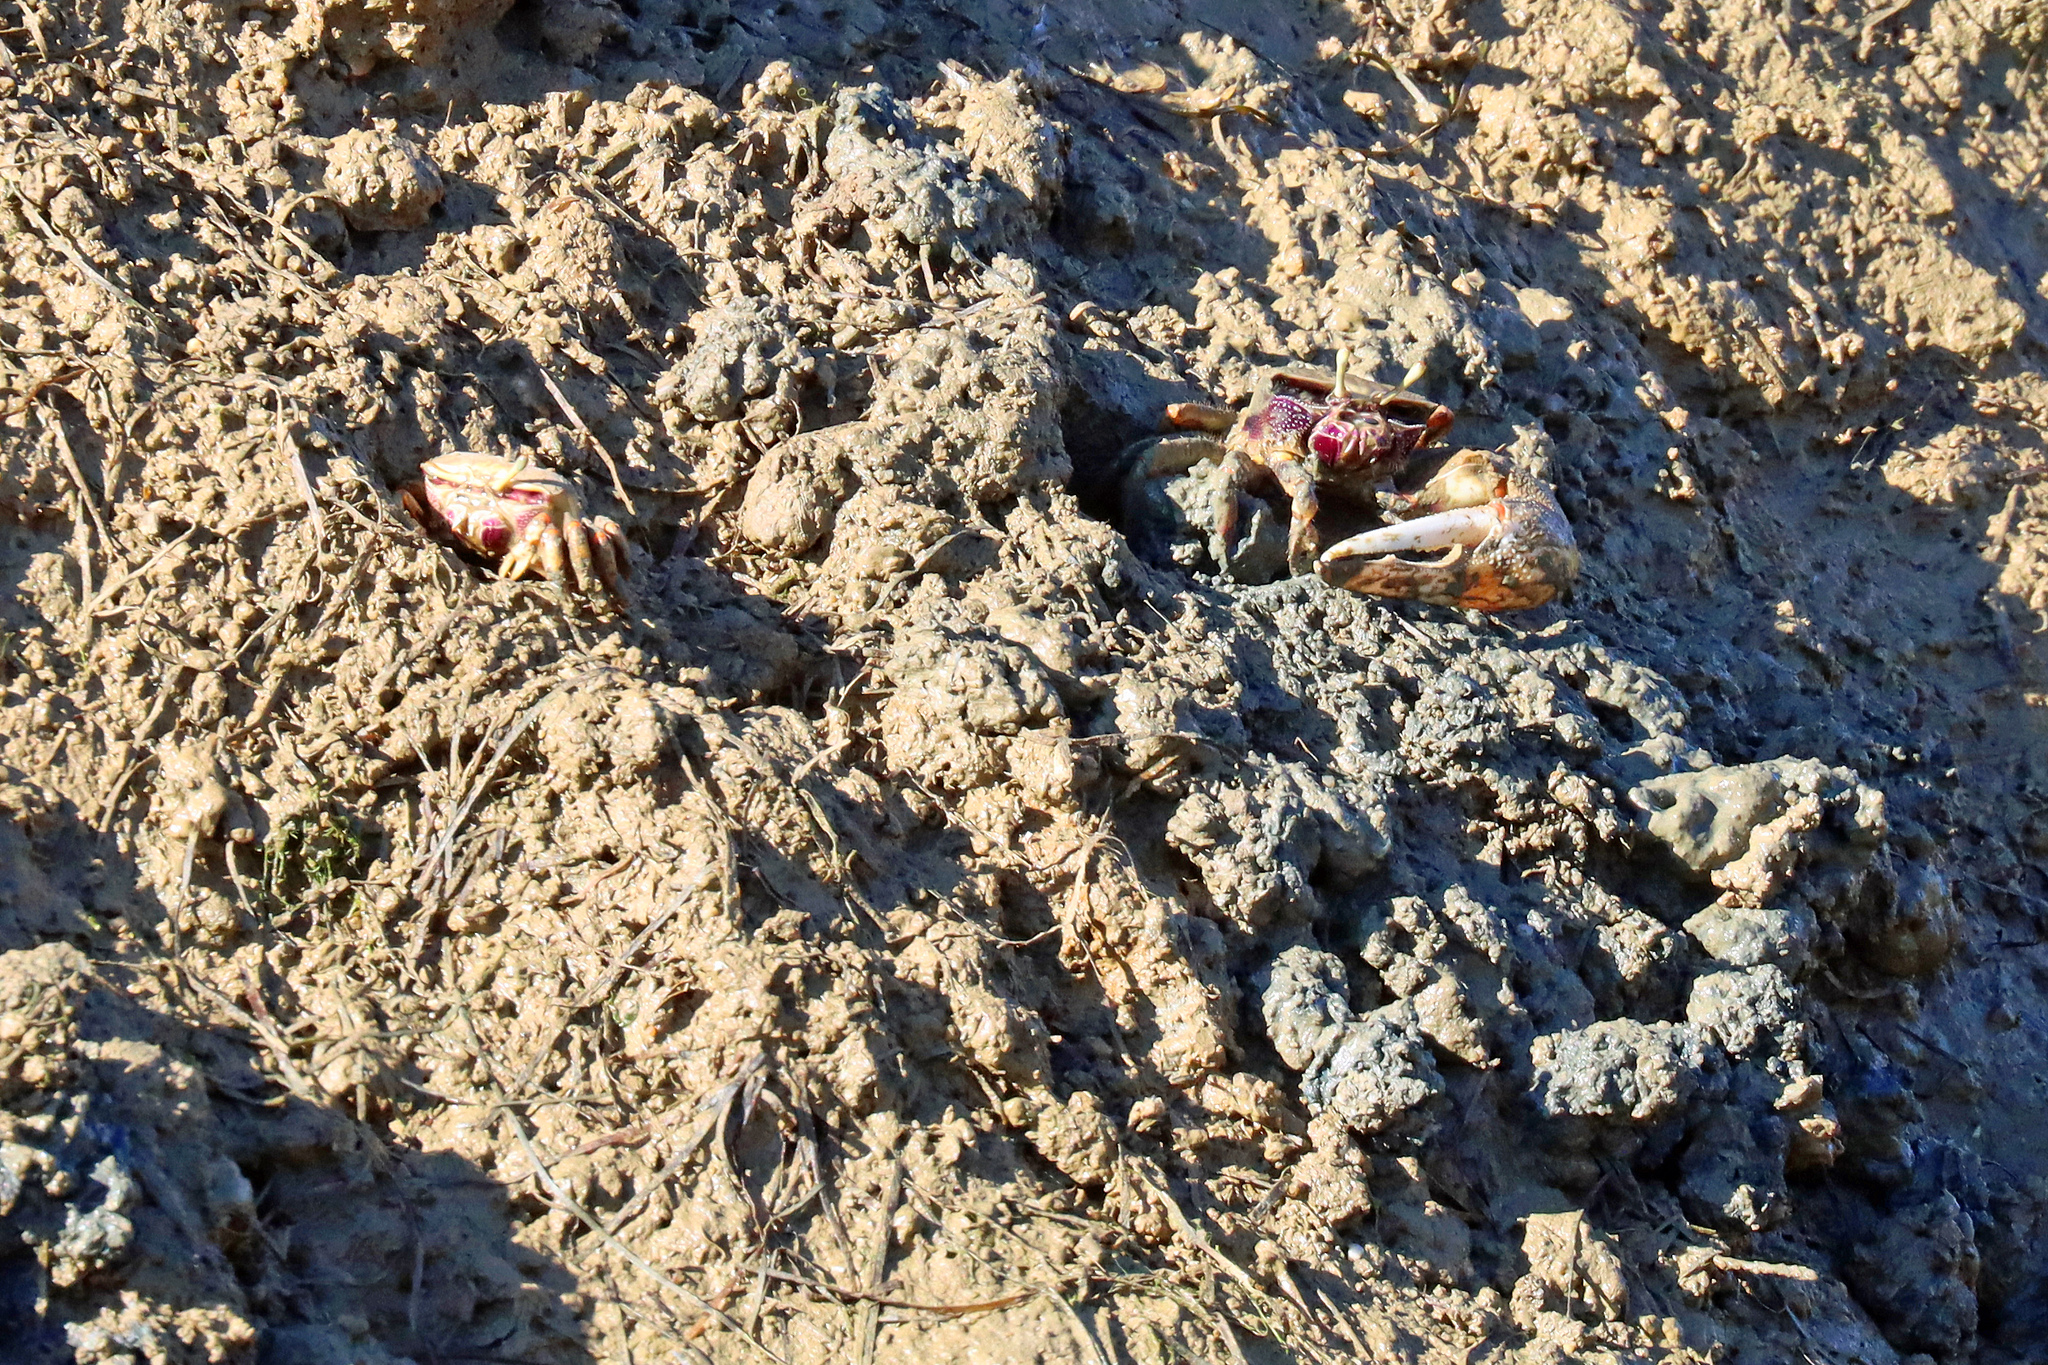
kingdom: Animalia
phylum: Arthropoda
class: Malacostraca
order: Decapoda
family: Ocypodidae
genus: Afruca
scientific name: Afruca tangeri
